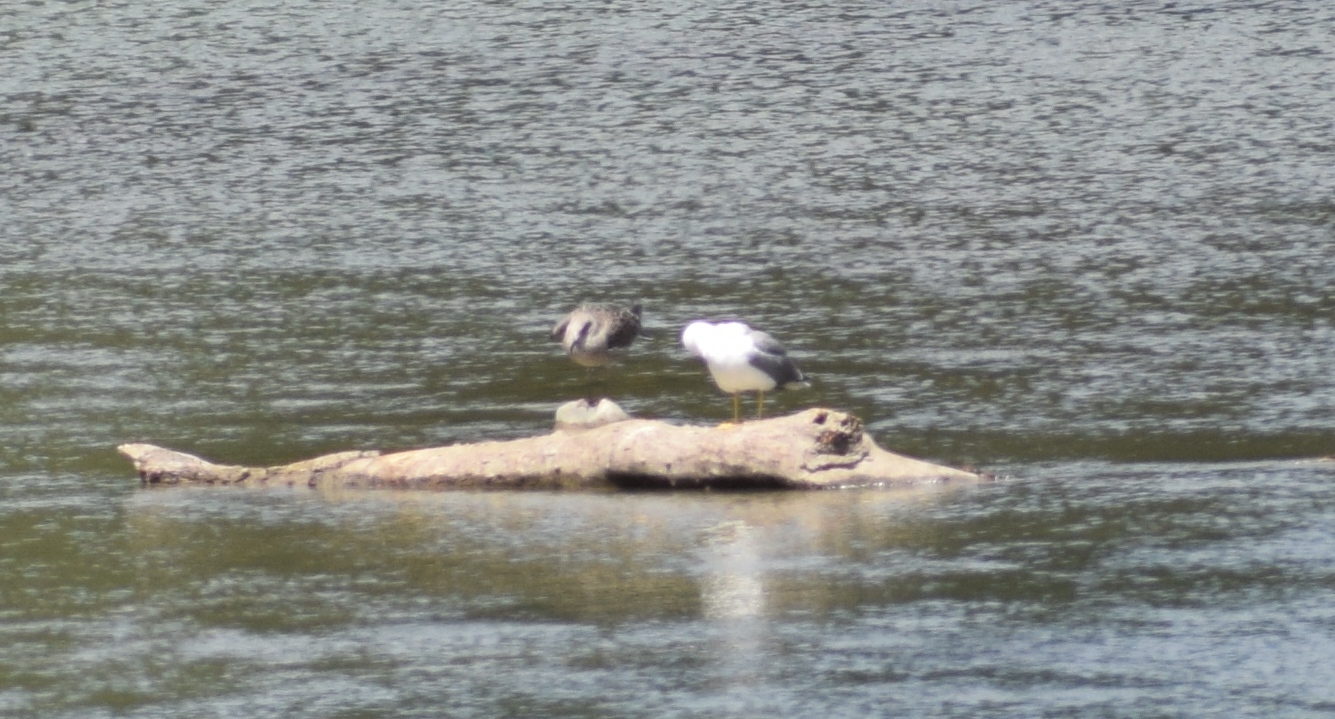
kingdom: Animalia
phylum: Chordata
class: Aves
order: Charadriiformes
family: Laridae
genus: Larus
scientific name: Larus fuscus
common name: Lesser black-backed gull
